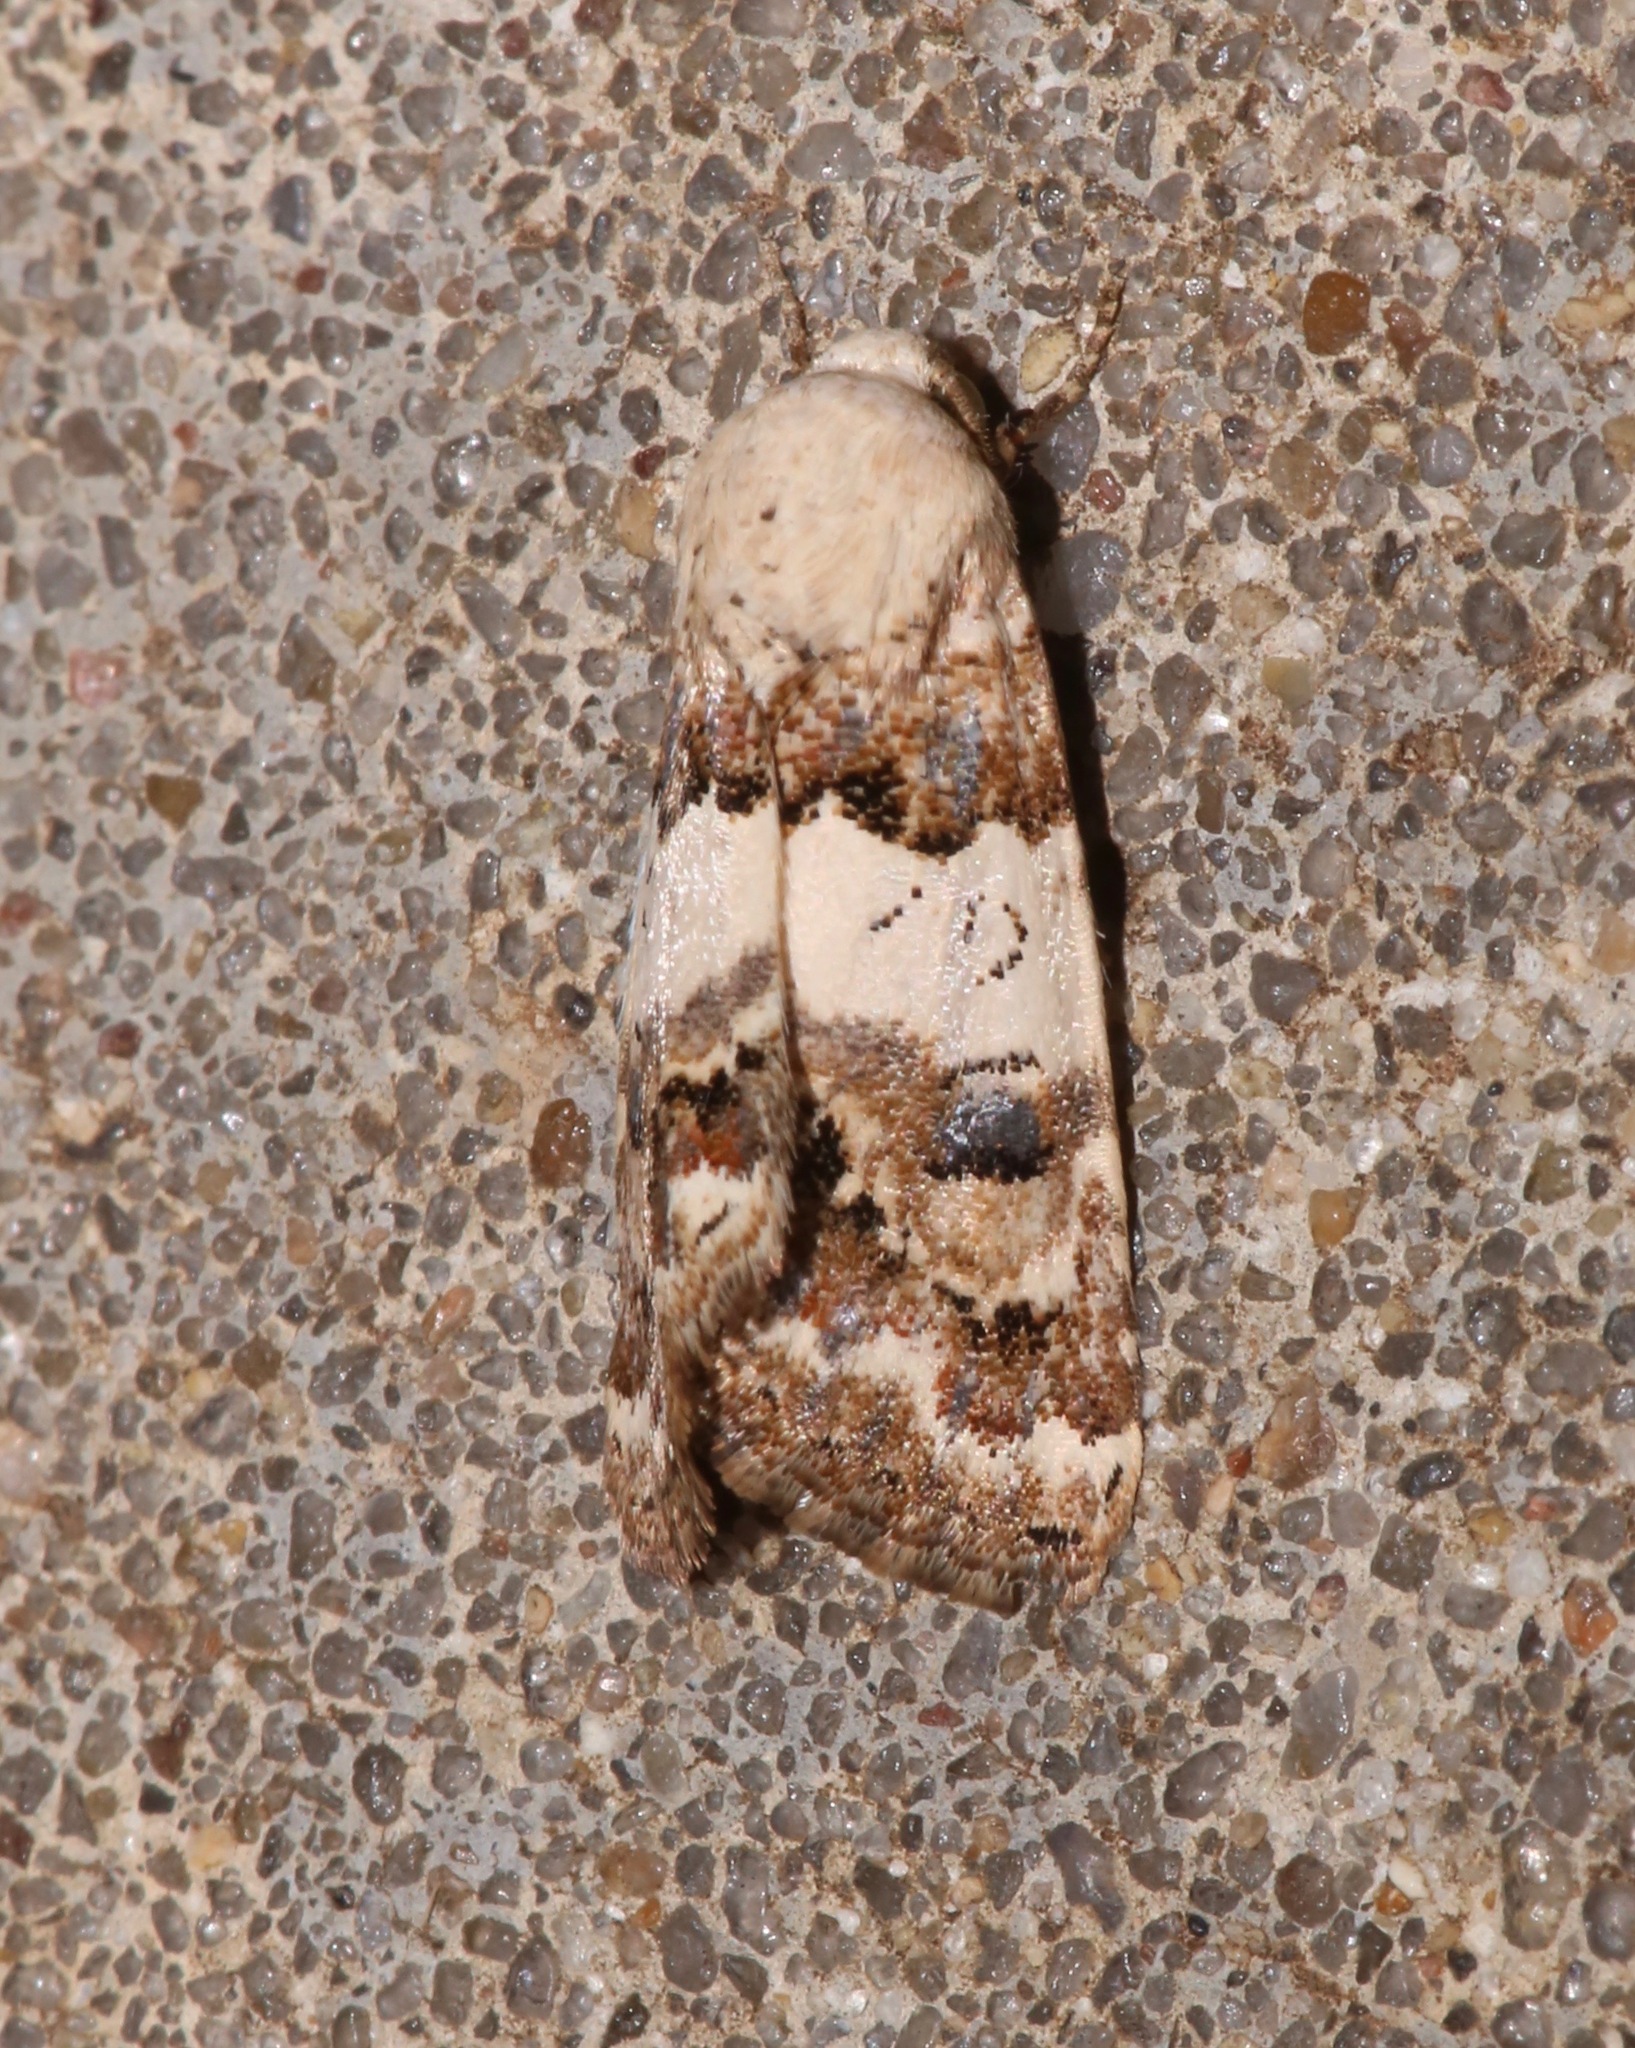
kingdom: Animalia
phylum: Arthropoda
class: Insecta
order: Lepidoptera
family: Noctuidae
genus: Schinia
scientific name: Schinia tertia
